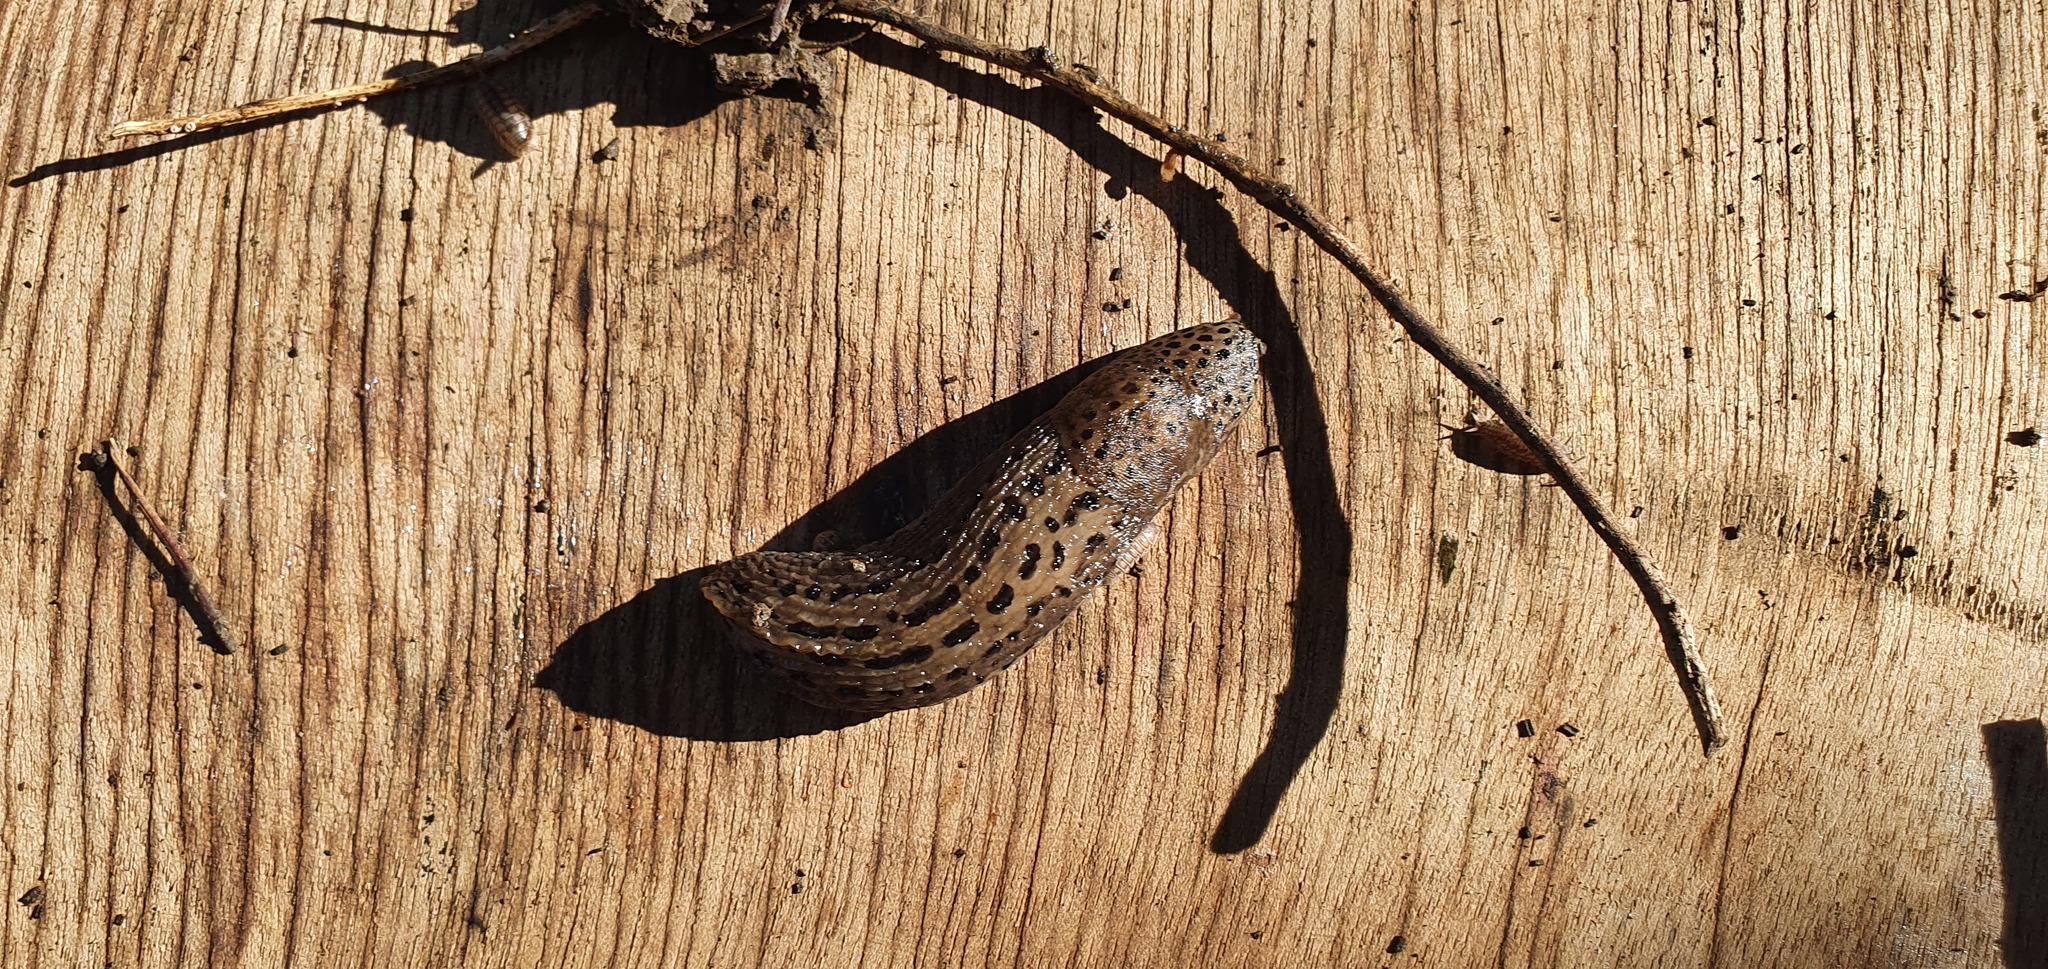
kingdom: Animalia
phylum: Mollusca
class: Gastropoda
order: Stylommatophora
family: Limacidae
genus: Limax
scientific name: Limax maximus
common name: Great grey slug
